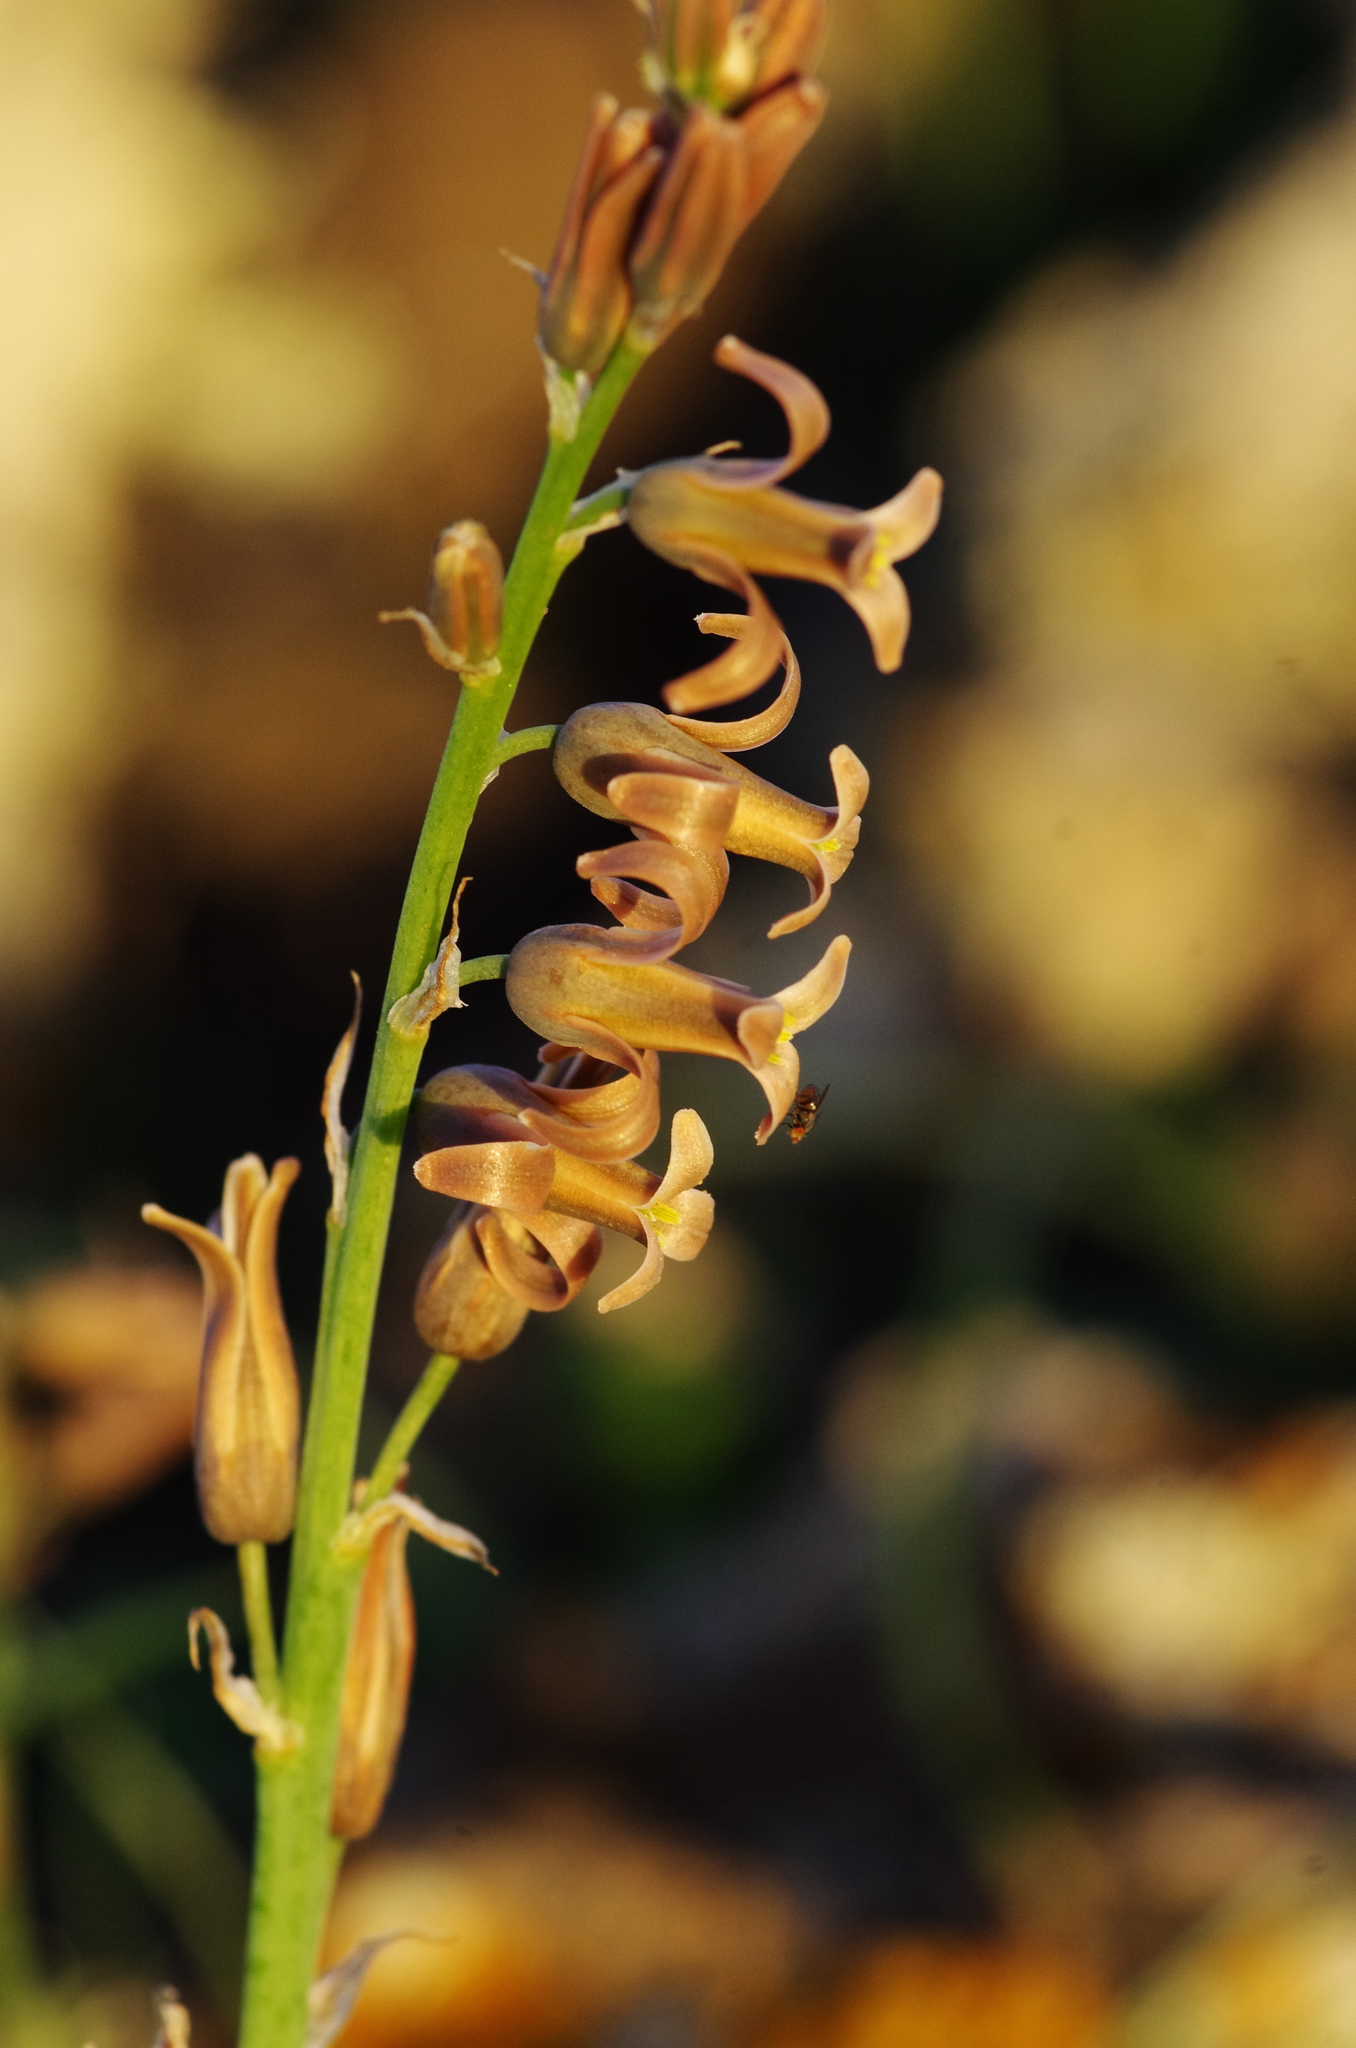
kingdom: Plantae
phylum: Tracheophyta
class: Liliopsida
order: Asparagales
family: Asparagaceae
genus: Dipcadi
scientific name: Dipcadi serotinum
